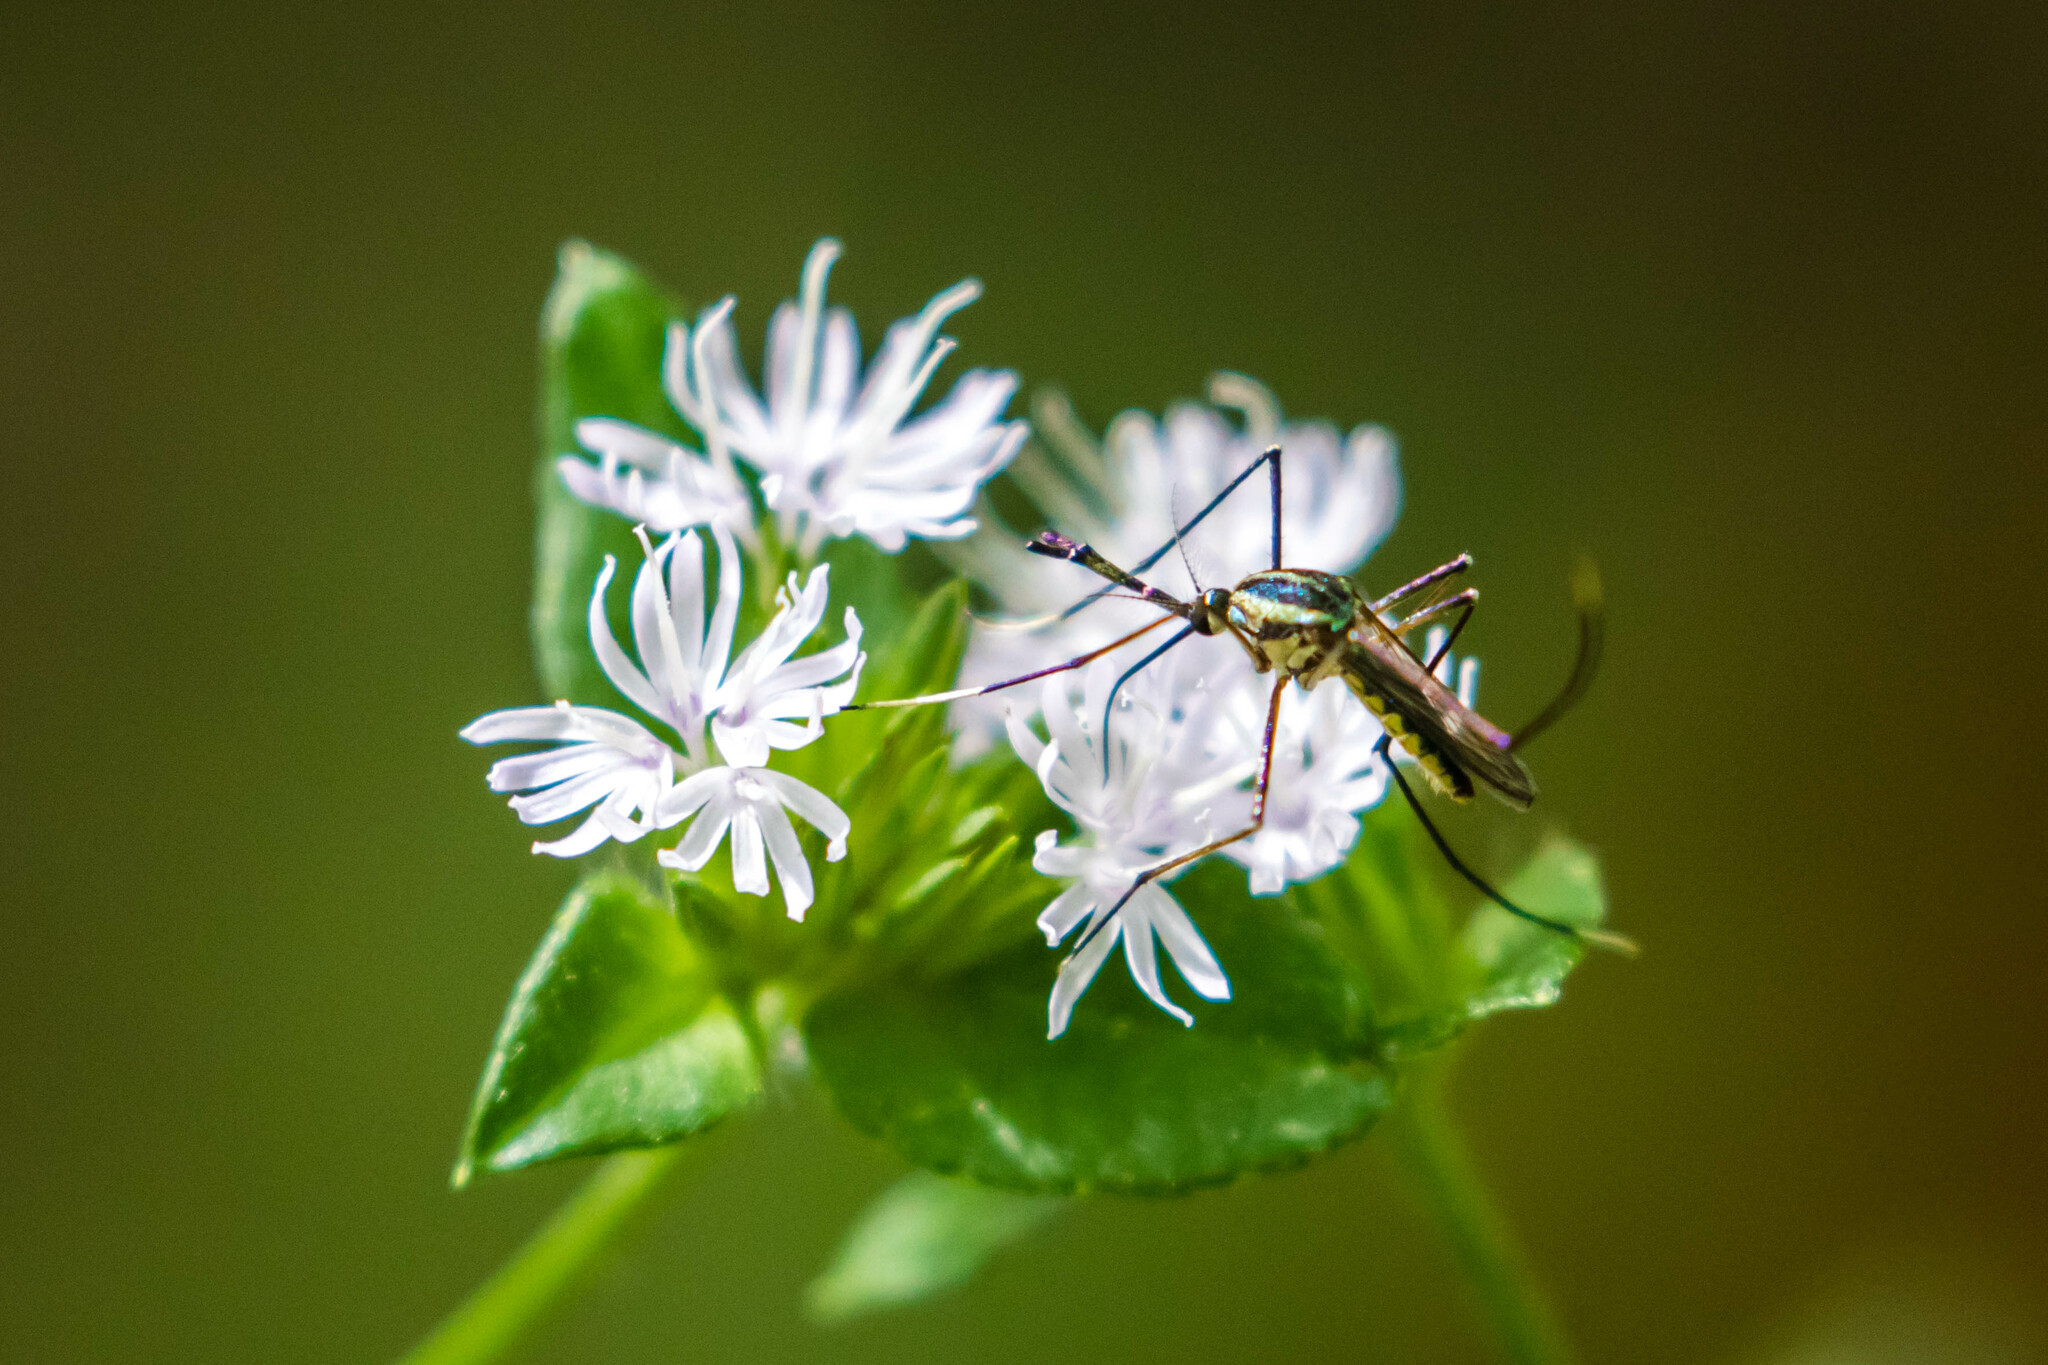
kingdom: Animalia
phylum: Arthropoda
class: Insecta
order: Diptera
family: Culicidae
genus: Toxorhynchites
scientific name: Toxorhynchites rutilus
